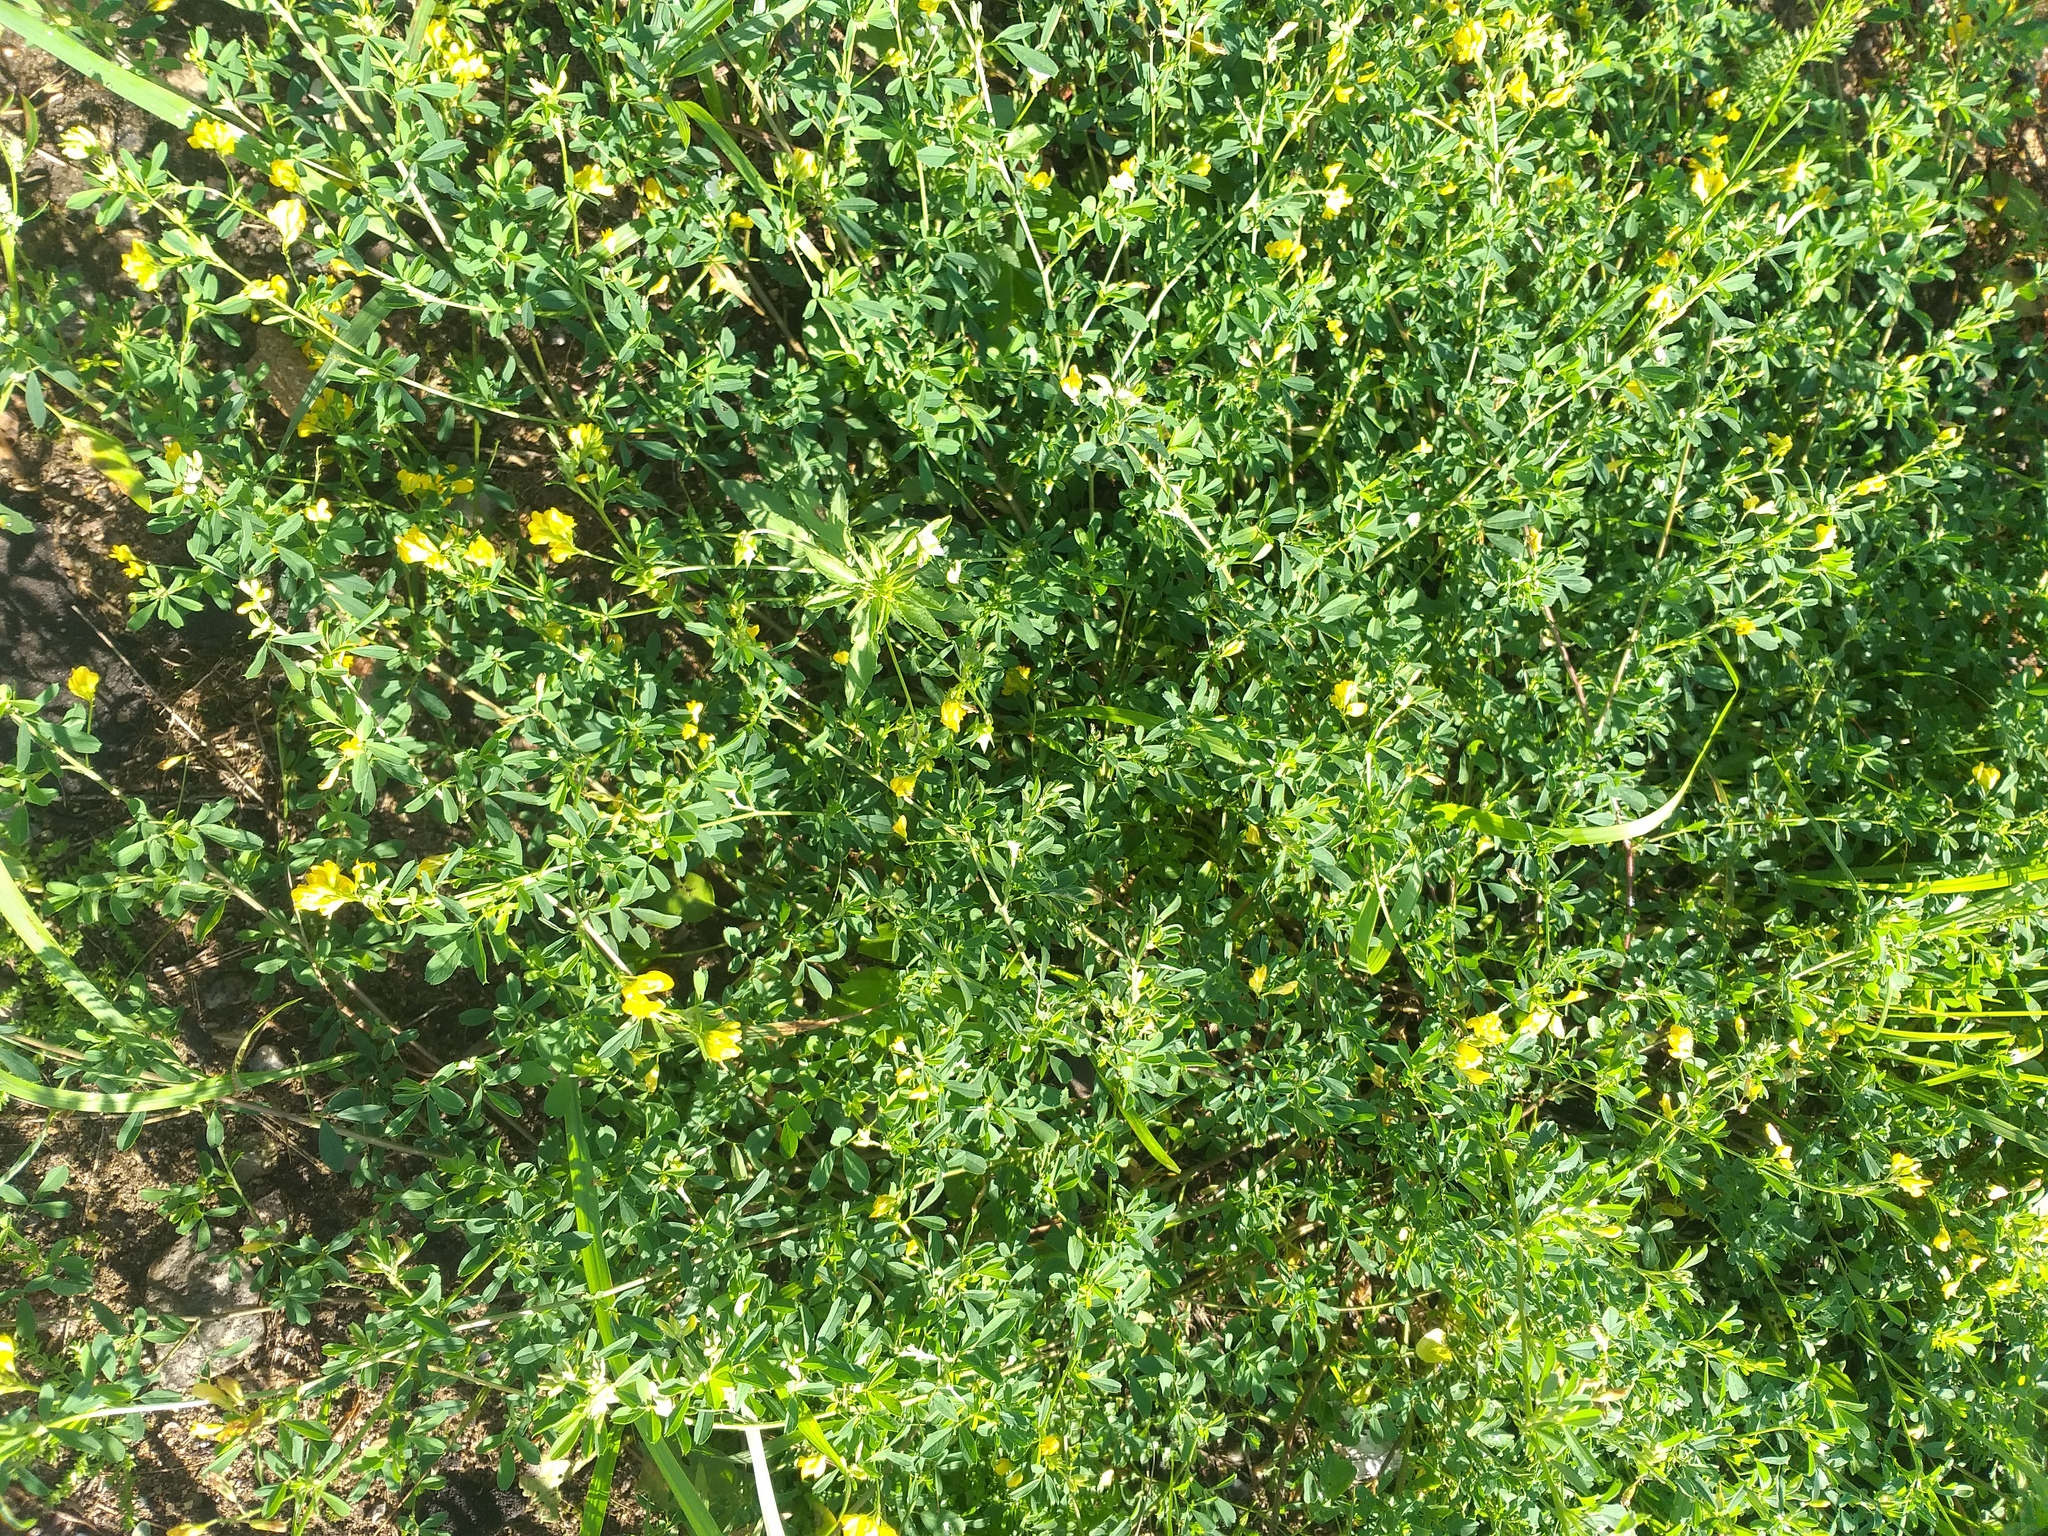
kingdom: Plantae
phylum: Tracheophyta
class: Magnoliopsida
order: Fabales
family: Fabaceae
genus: Medicago
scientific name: Medicago falcata
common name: Sickle medick
